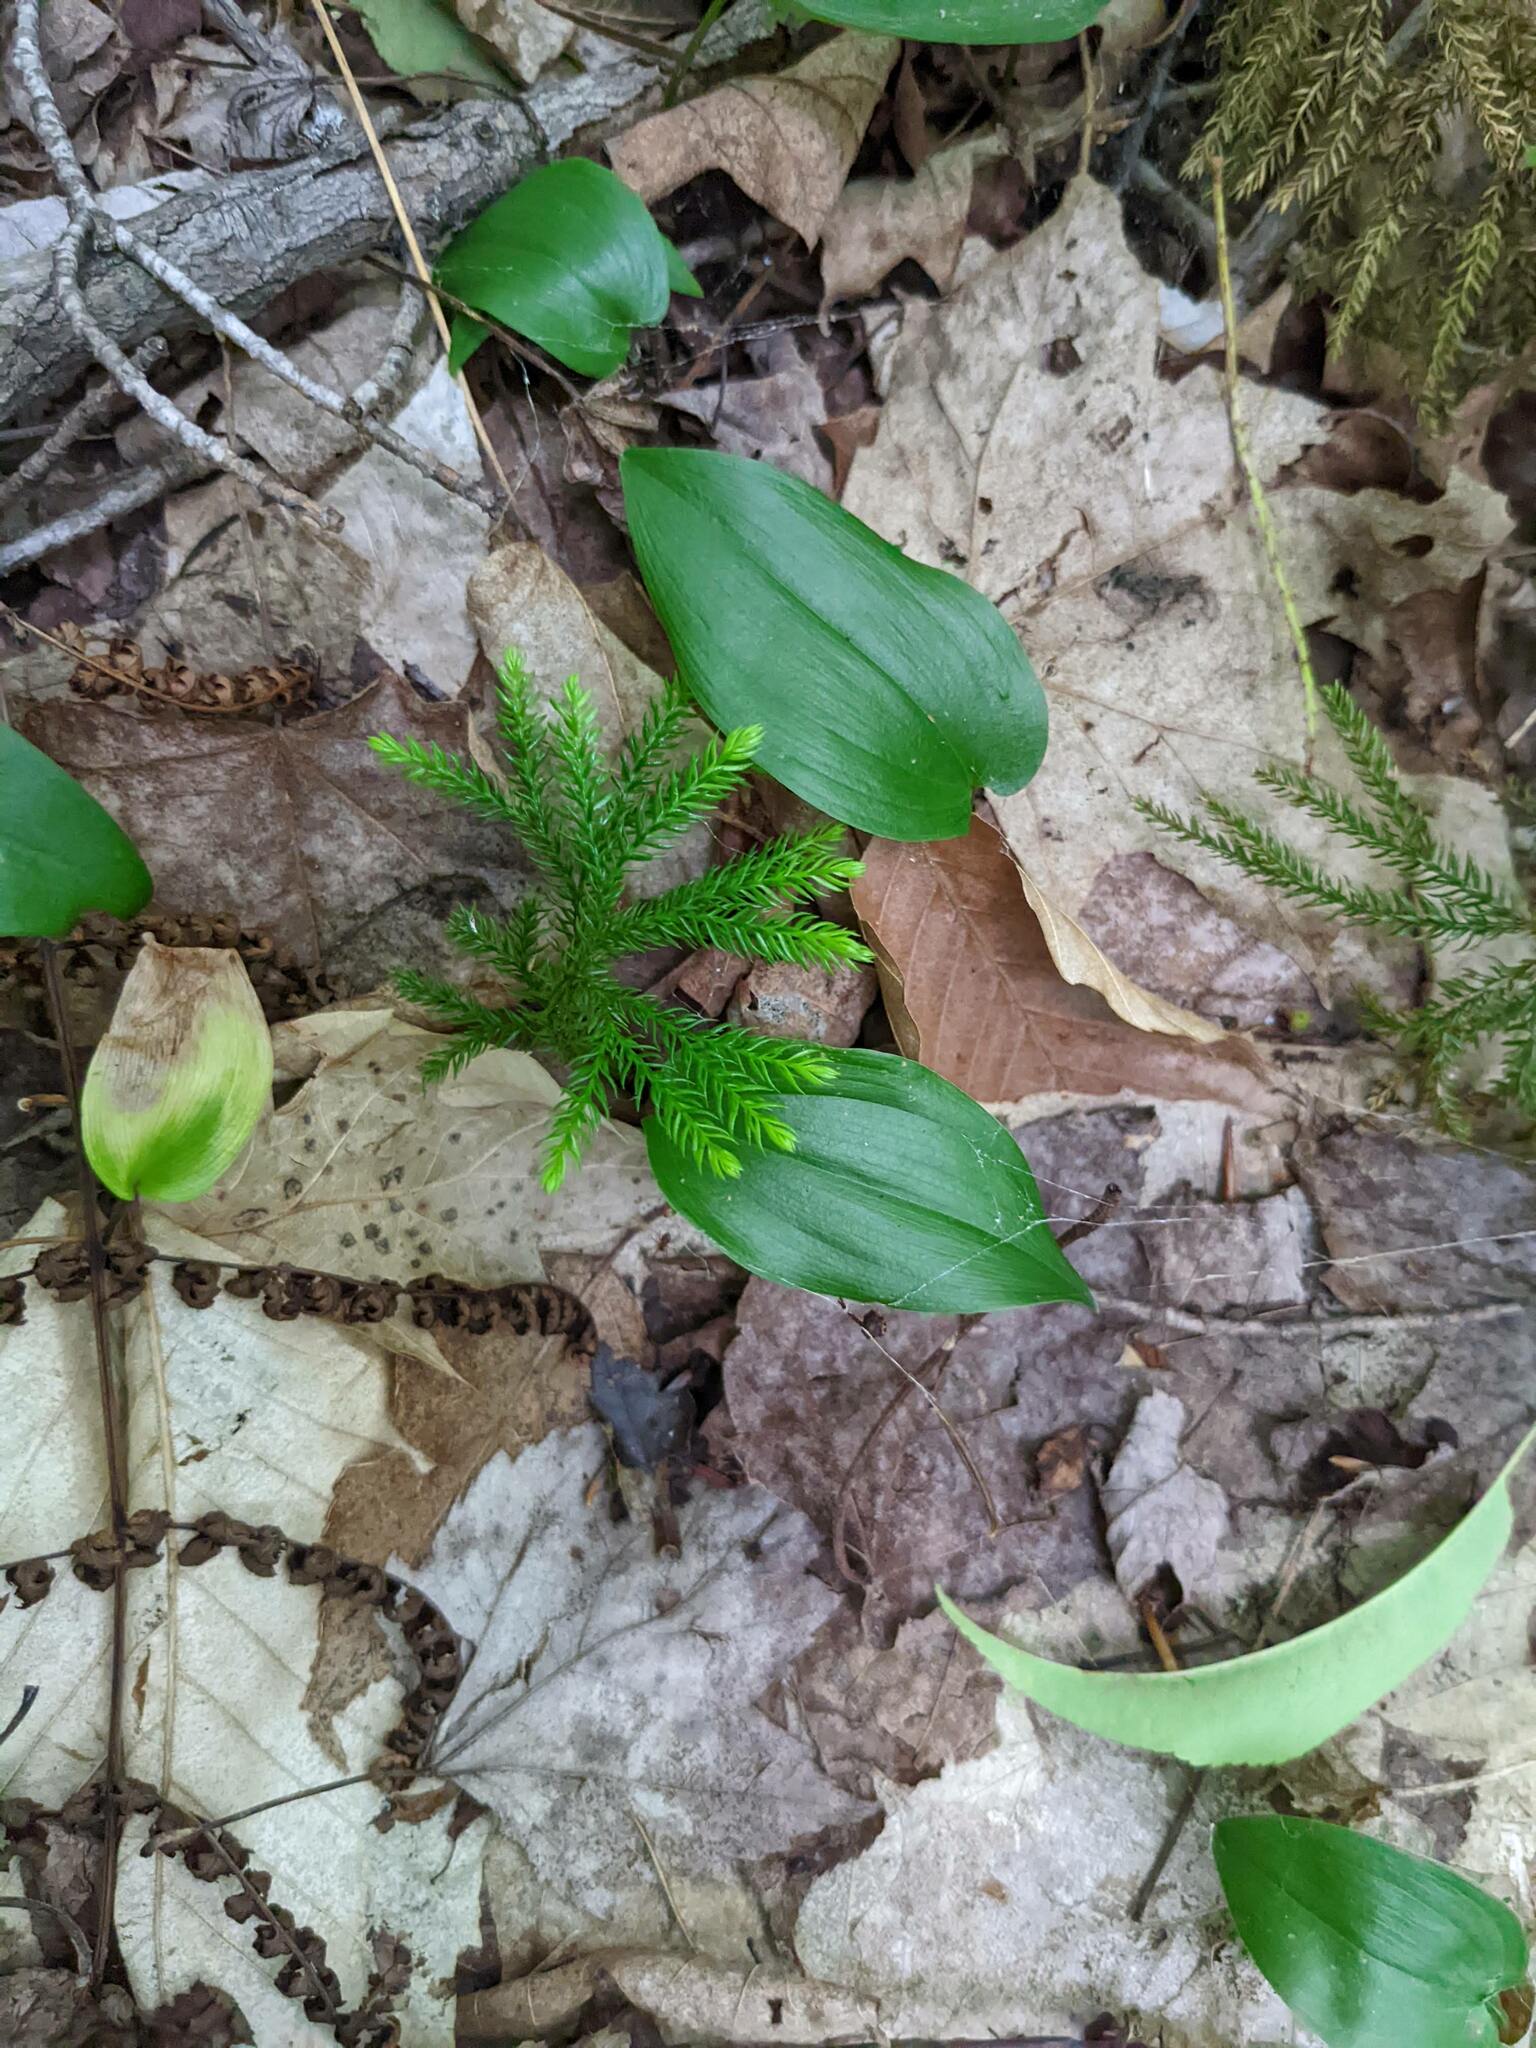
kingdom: Plantae
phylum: Tracheophyta
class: Liliopsida
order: Asparagales
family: Asparagaceae
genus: Maianthemum
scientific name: Maianthemum canadense
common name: False lily-of-the-valley
